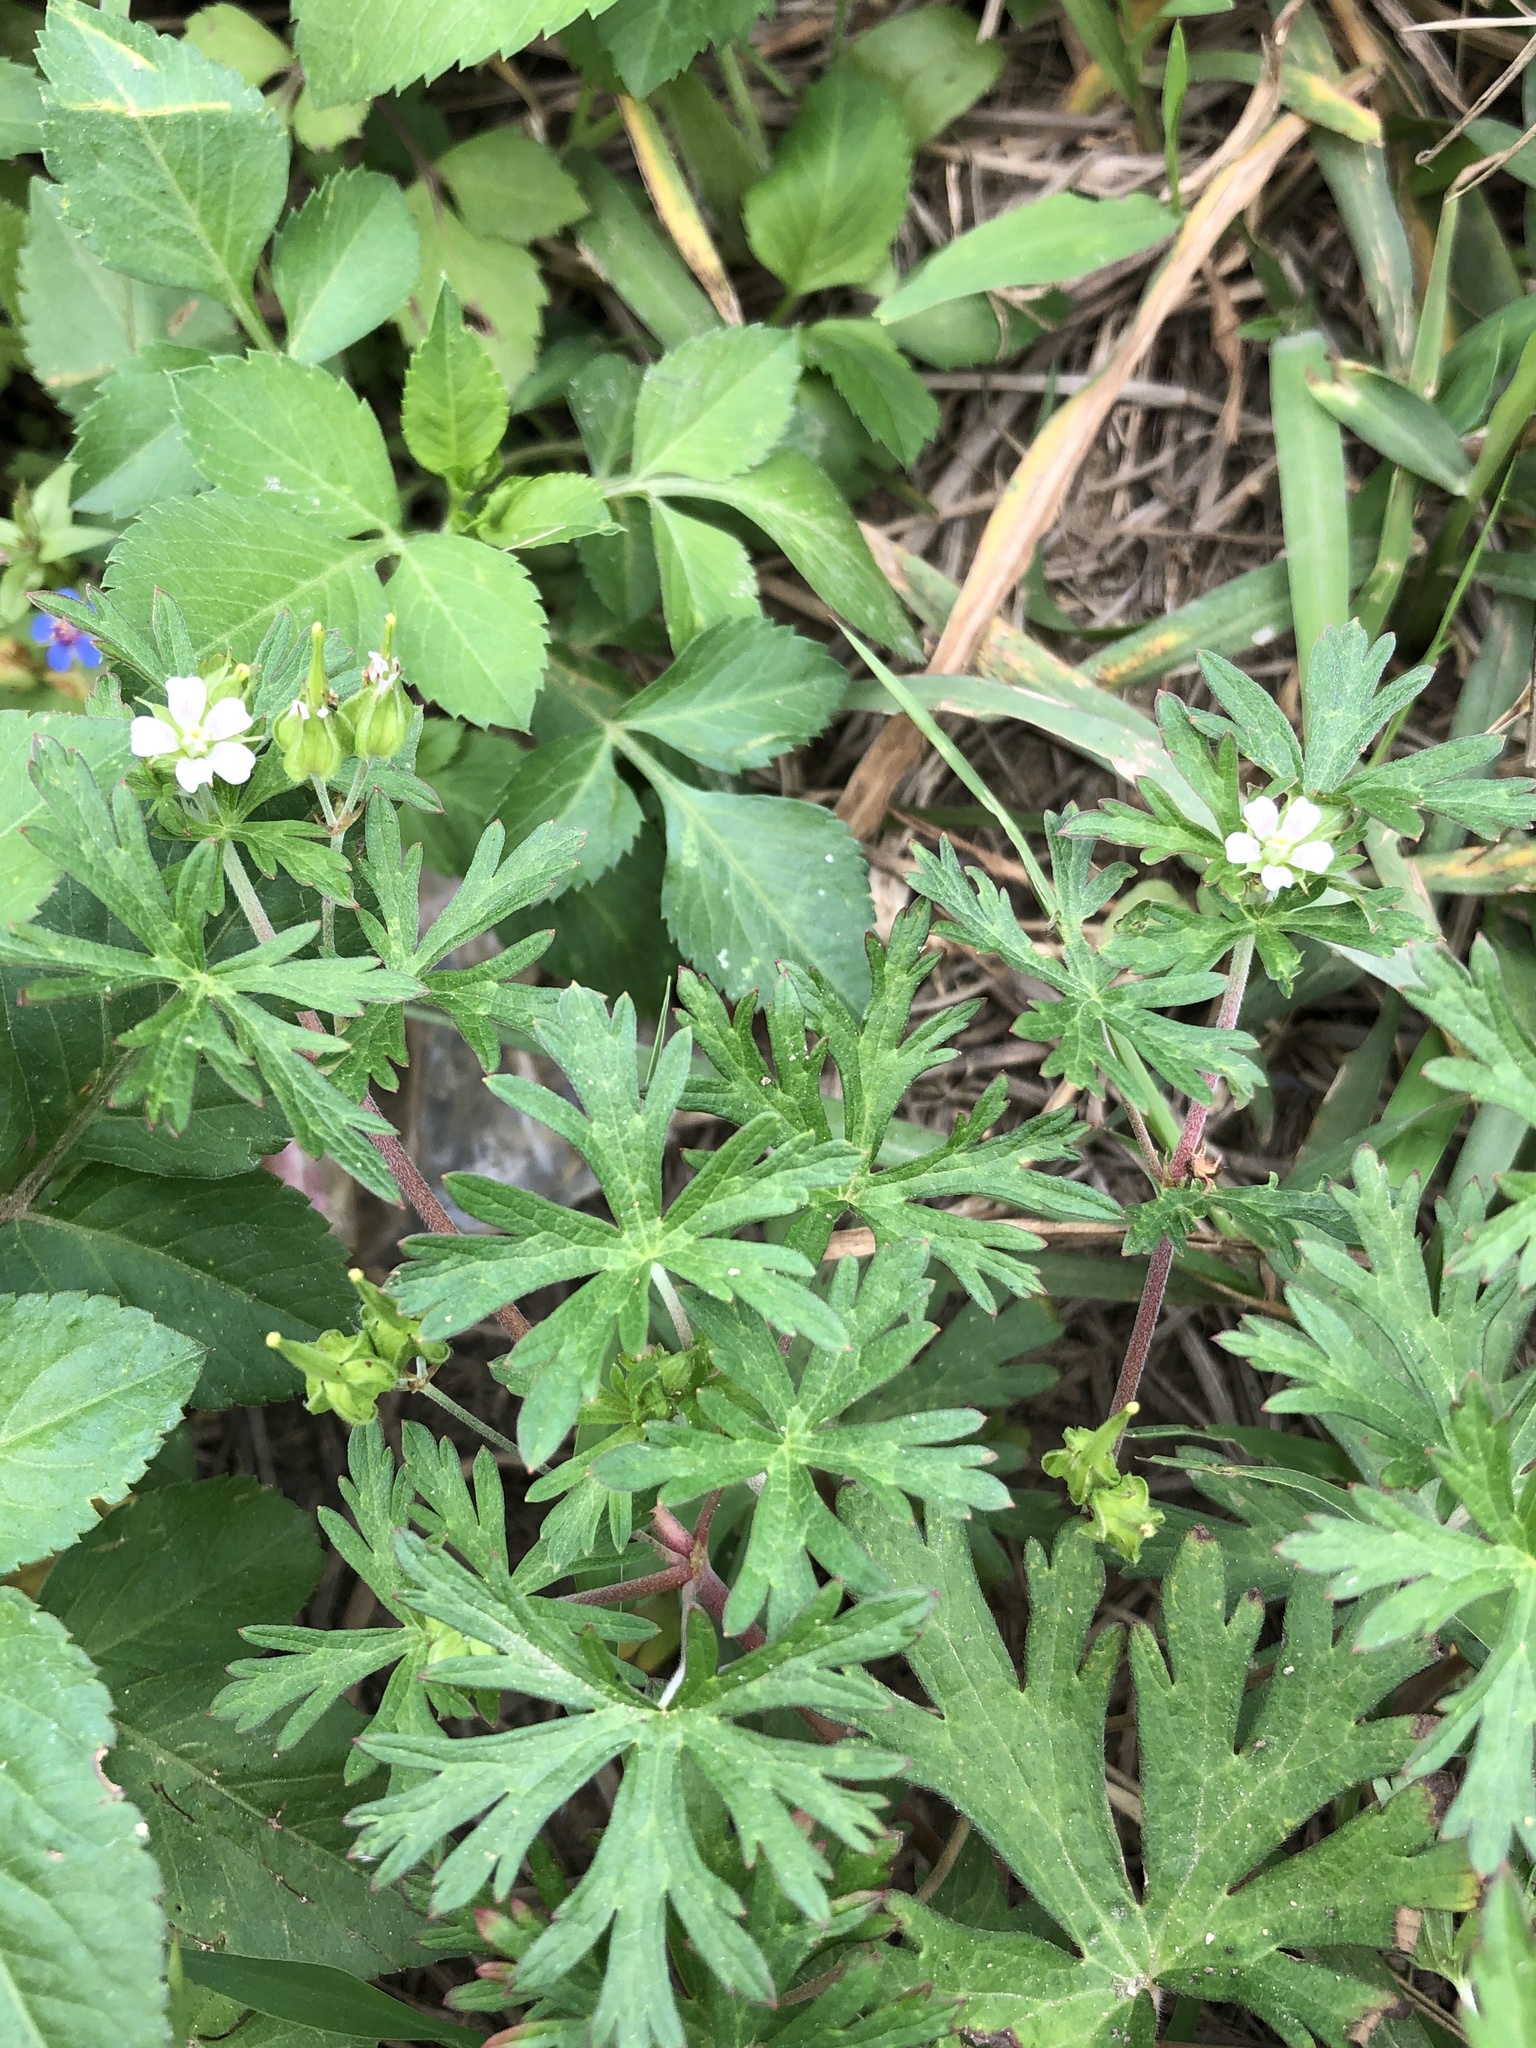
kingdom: Plantae
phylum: Tracheophyta
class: Magnoliopsida
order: Geraniales
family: Geraniaceae
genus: Geranium
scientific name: Geranium carolinianum
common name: Carolina crane's-bill
